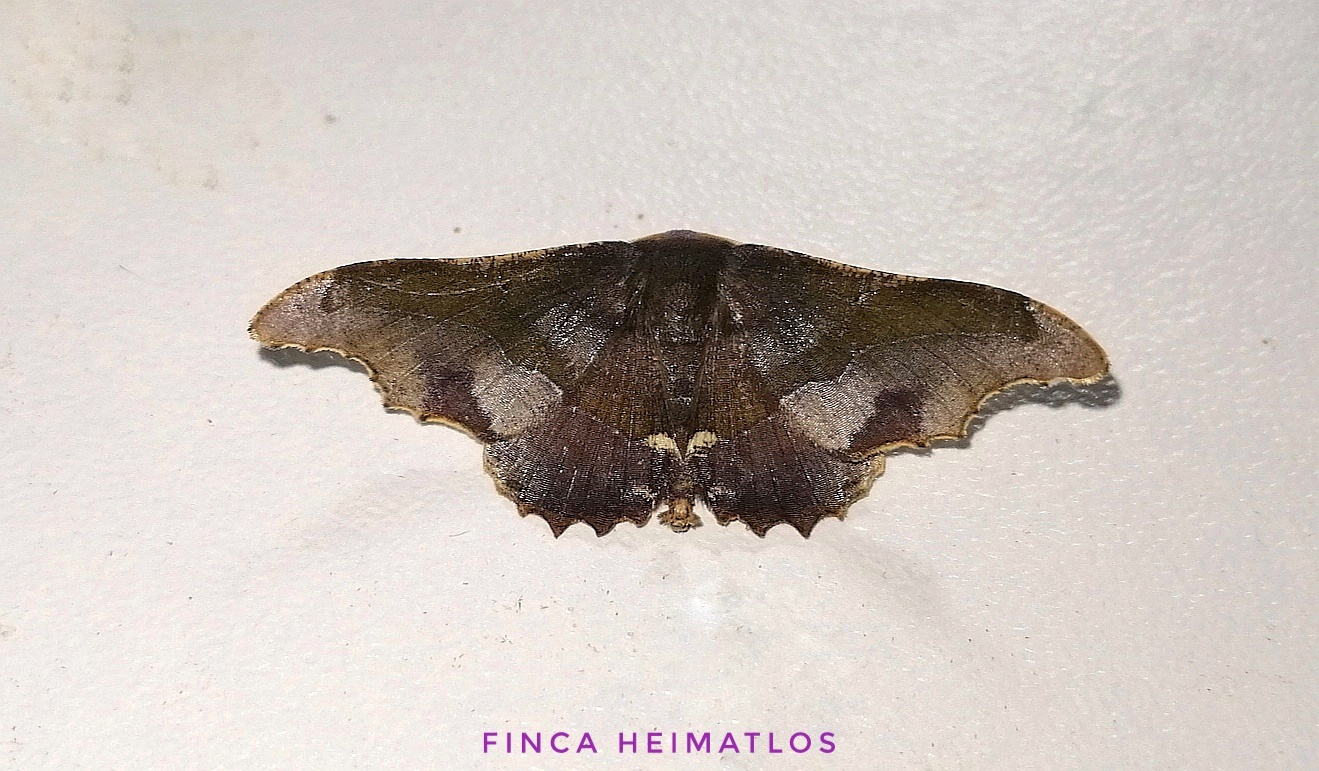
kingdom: Animalia
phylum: Arthropoda
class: Insecta
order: Lepidoptera
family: Geometridae
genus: Patalene
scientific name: Patalene aenetusaria
